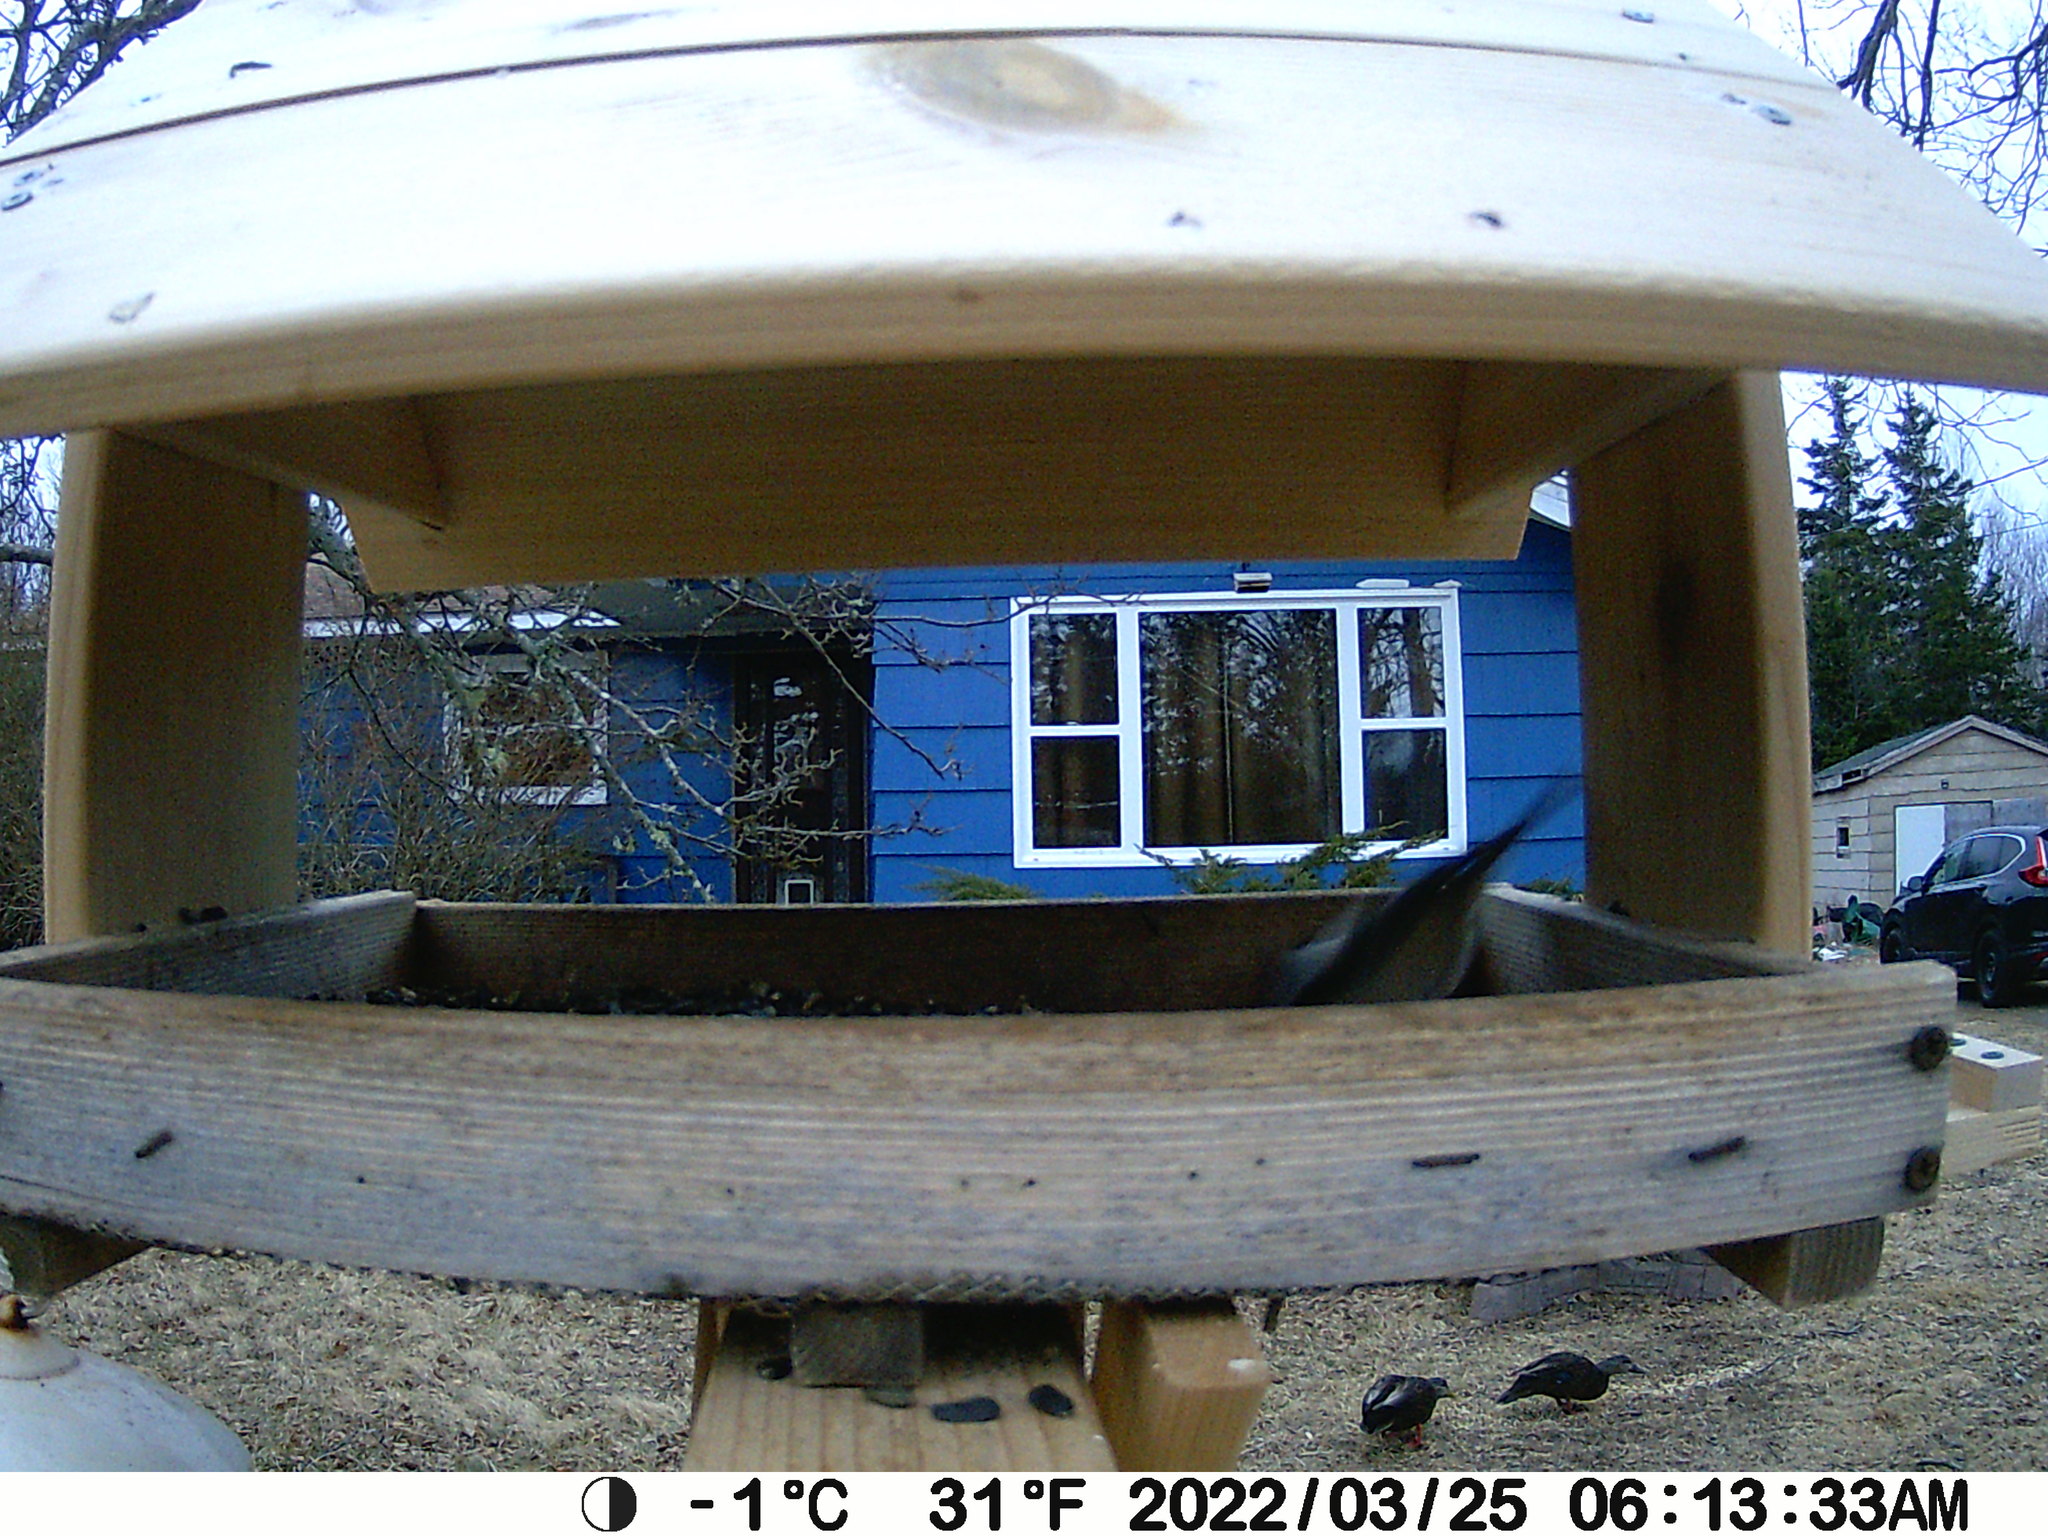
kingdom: Animalia
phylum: Chordata
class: Aves
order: Anseriformes
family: Anatidae
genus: Anas
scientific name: Anas rubripes
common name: American black duck
